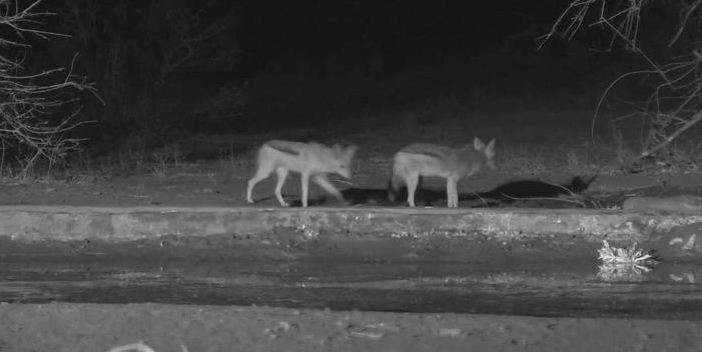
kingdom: Animalia
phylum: Chordata
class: Mammalia
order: Carnivora
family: Canidae
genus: Lupulella
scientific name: Lupulella
